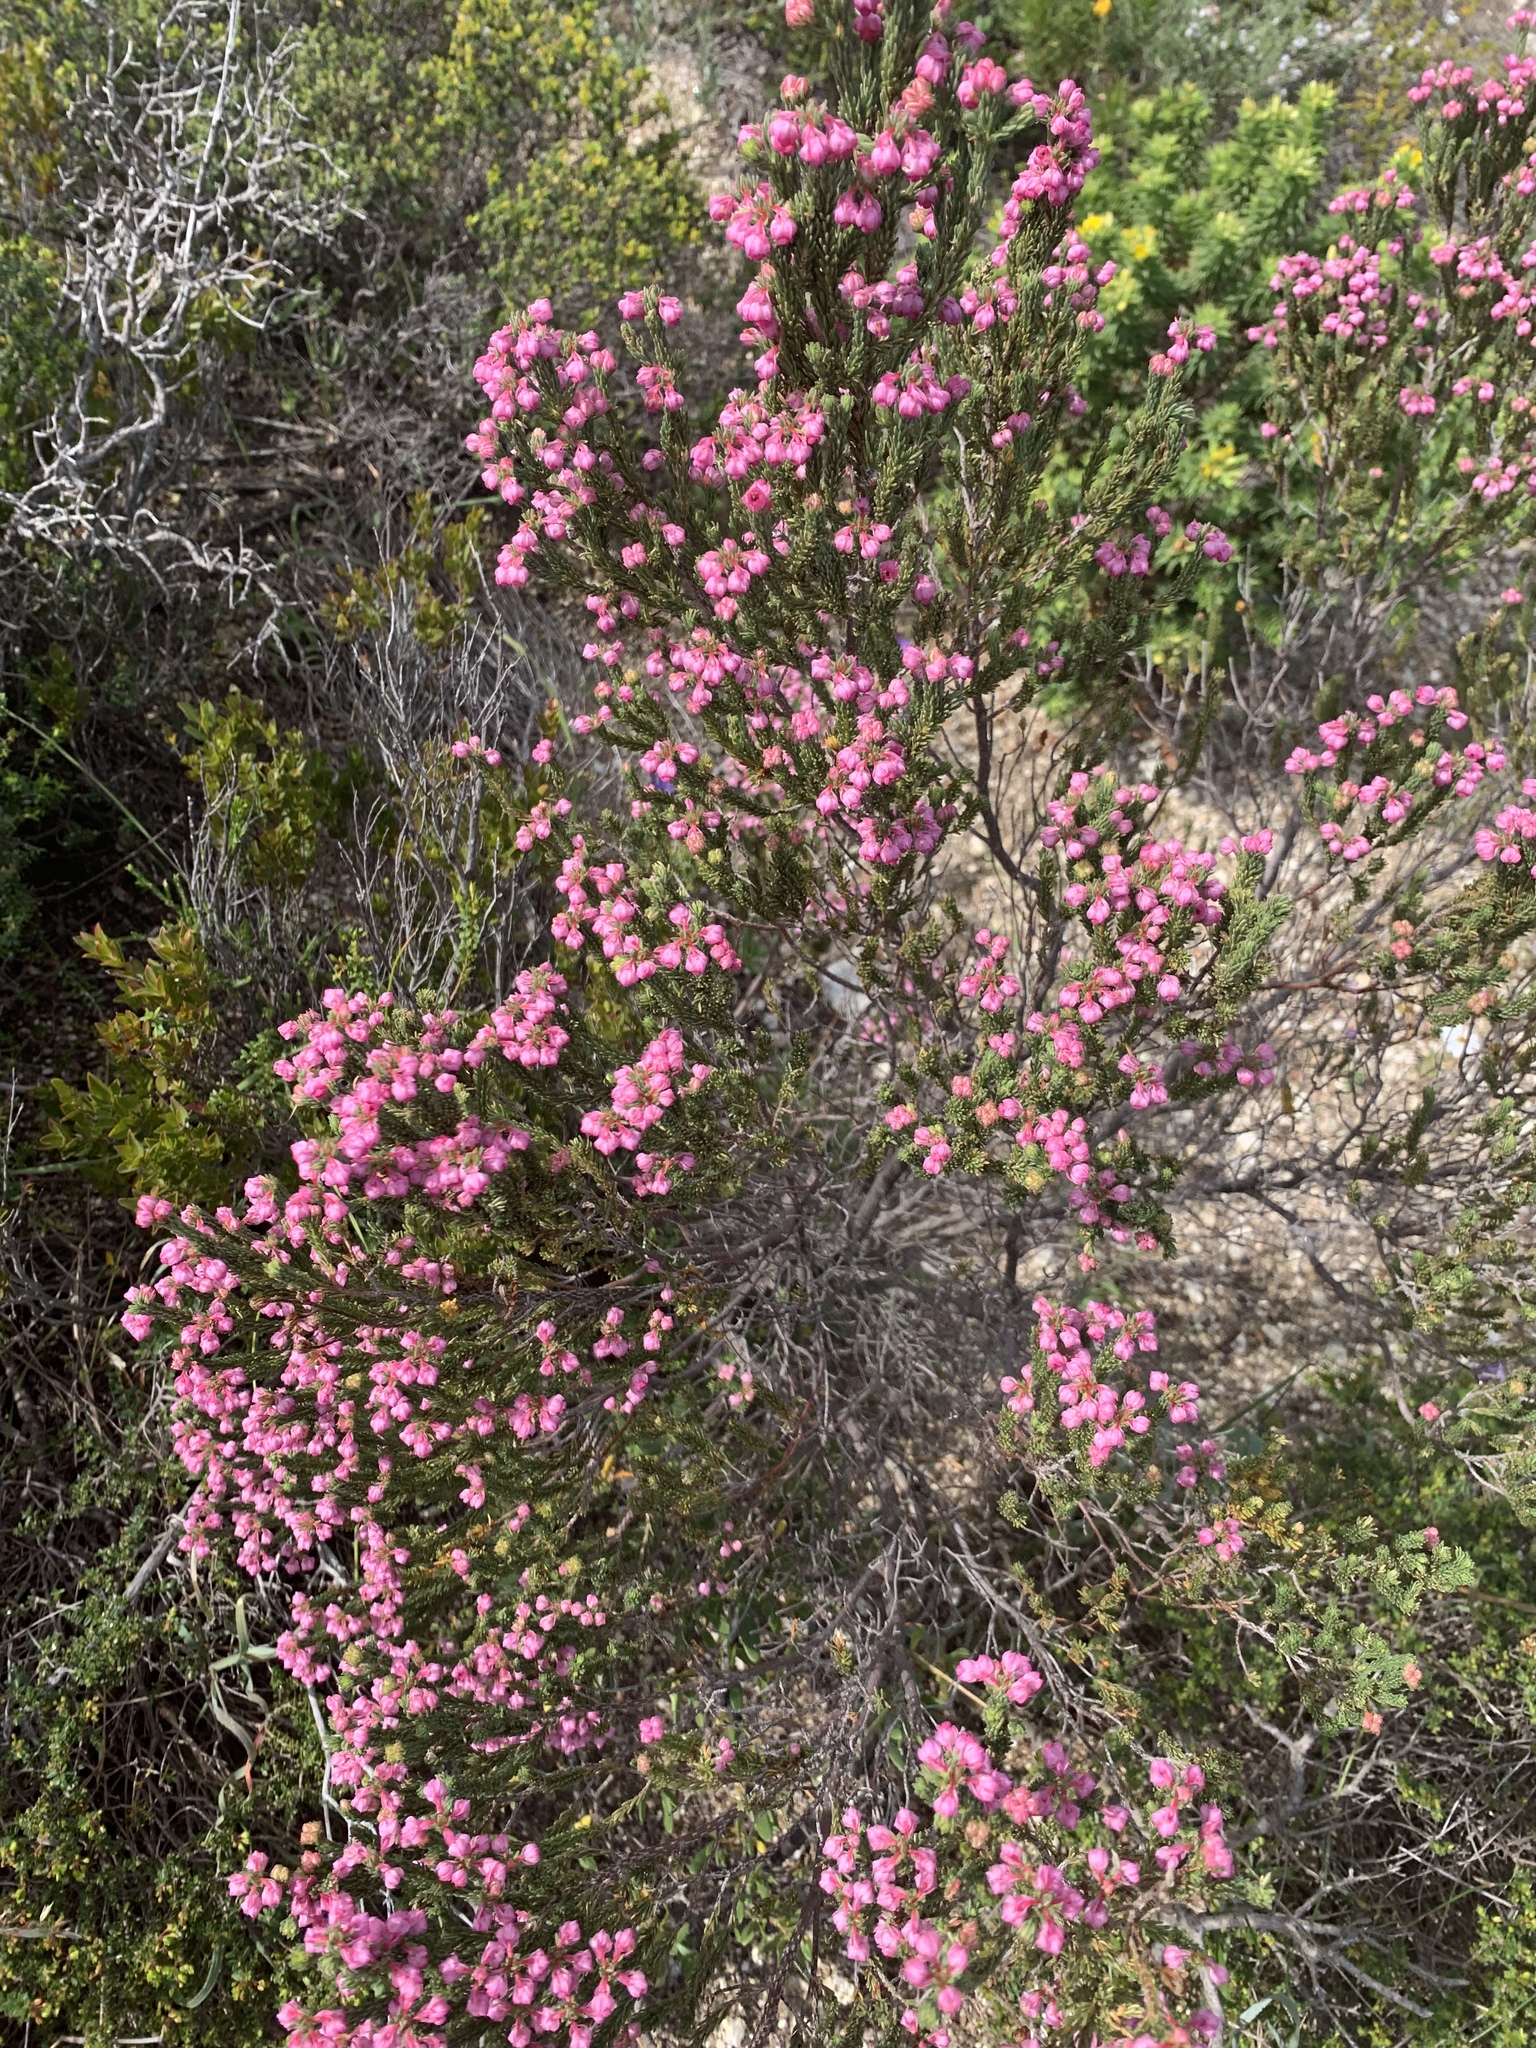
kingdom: Plantae
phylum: Tracheophyta
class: Magnoliopsida
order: Ericales
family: Ericaceae
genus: Erica
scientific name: Erica baccans
